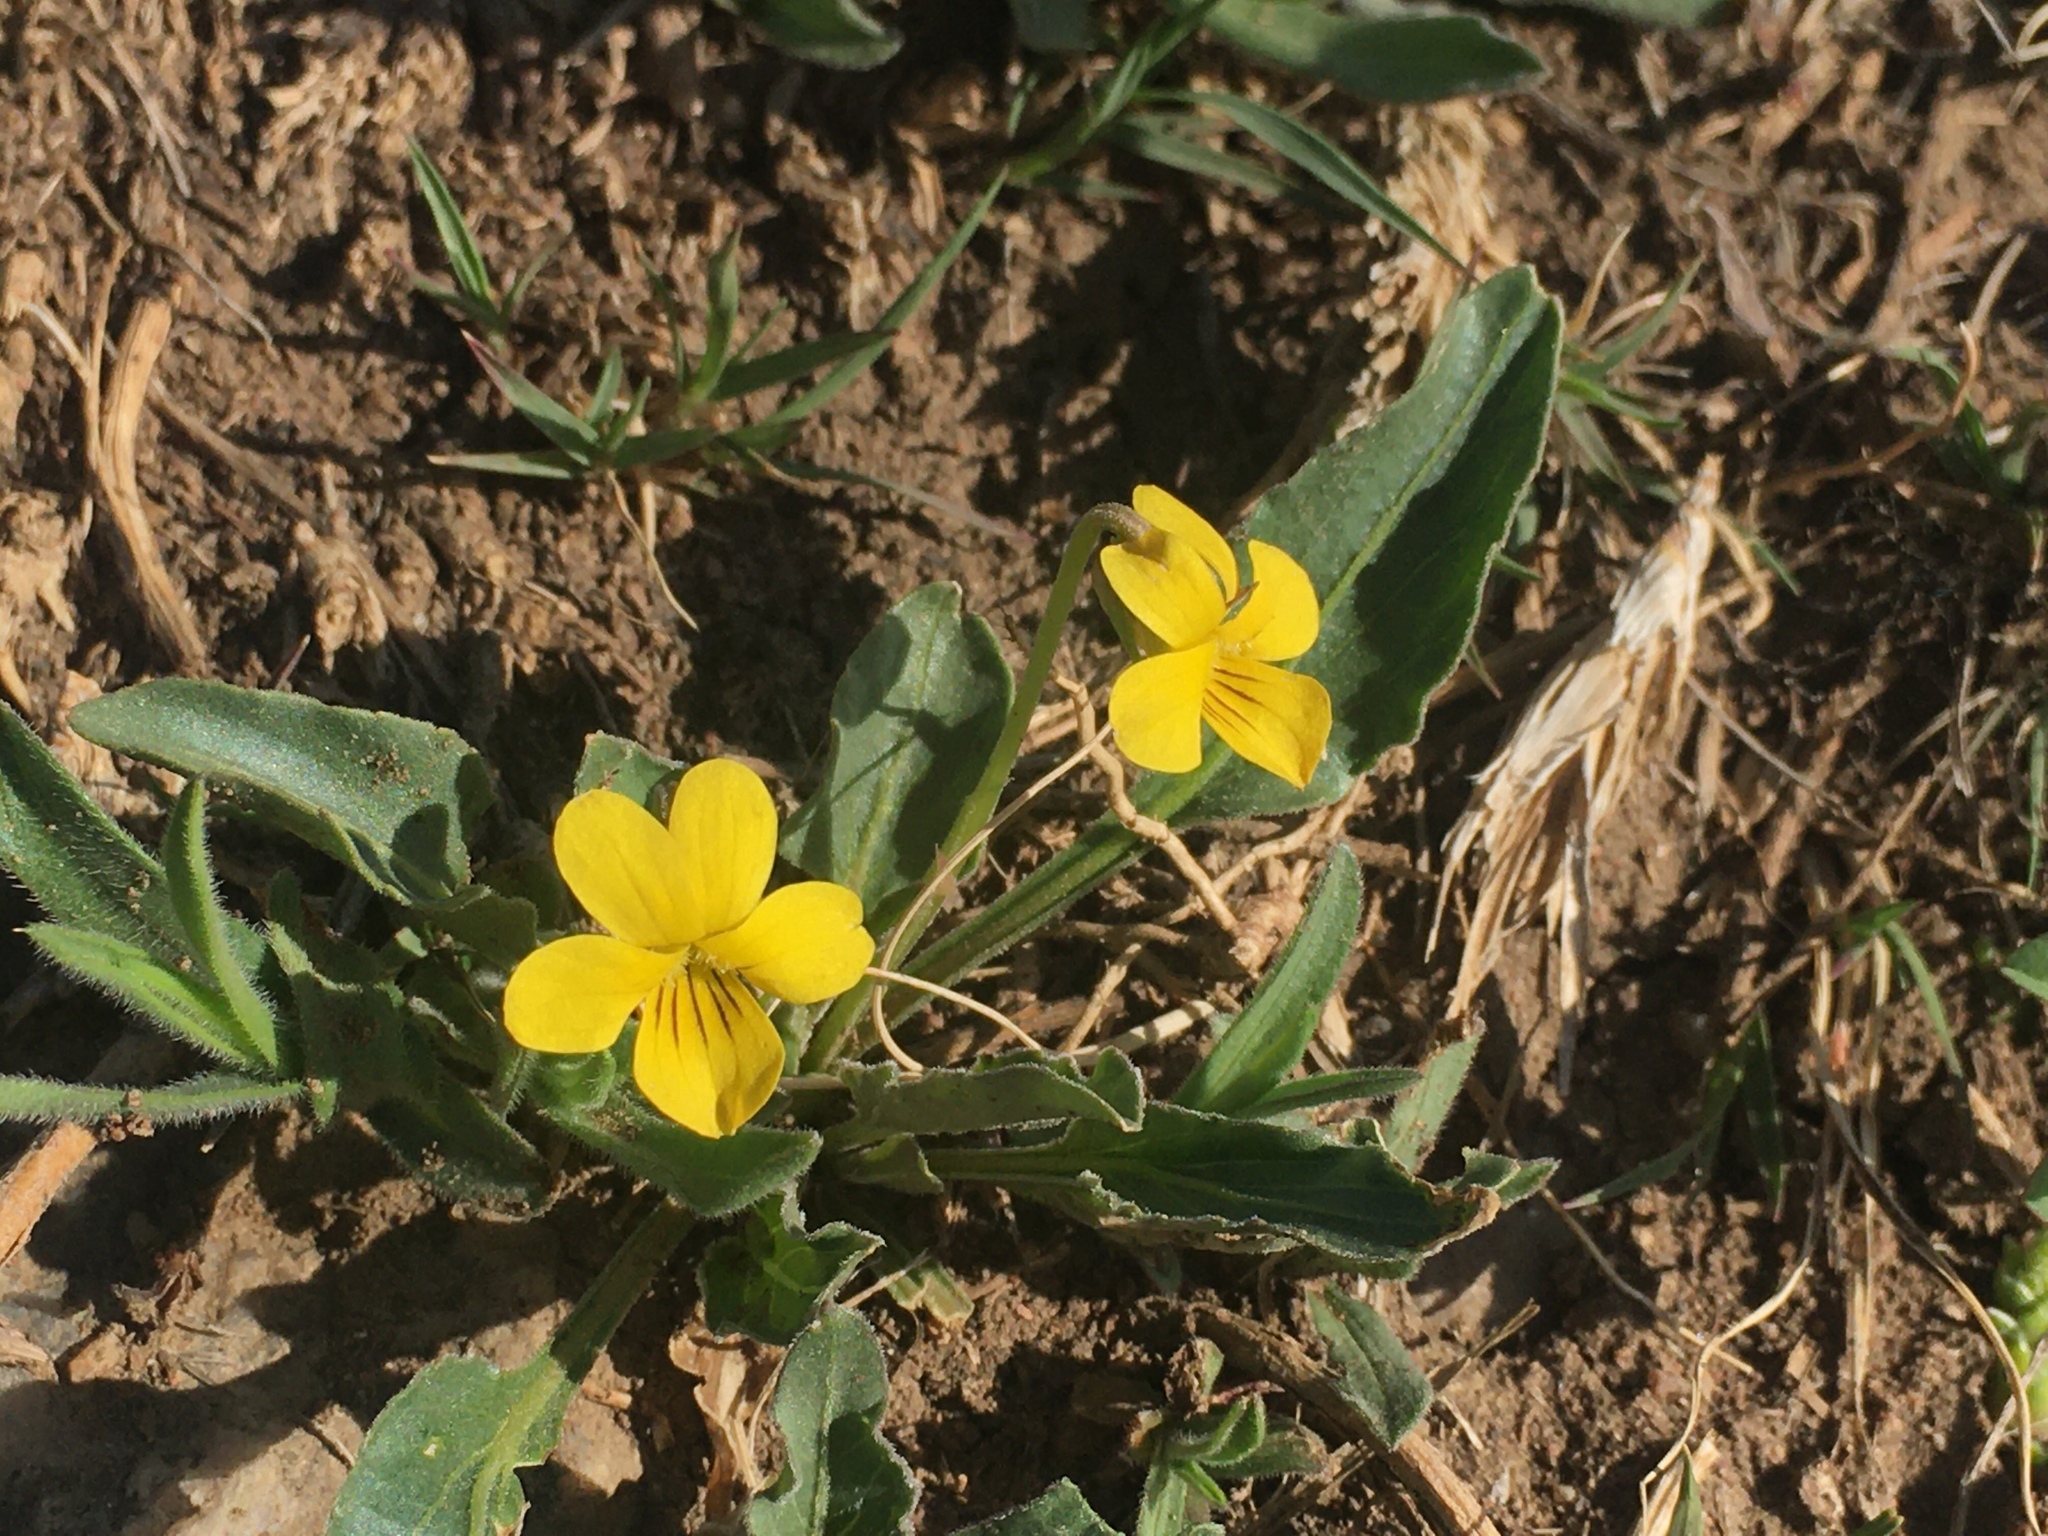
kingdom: Plantae
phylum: Tracheophyta
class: Magnoliopsida
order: Malpighiales
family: Violaceae
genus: Viola
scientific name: Viola nuttallii
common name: Yellow prairie violet
